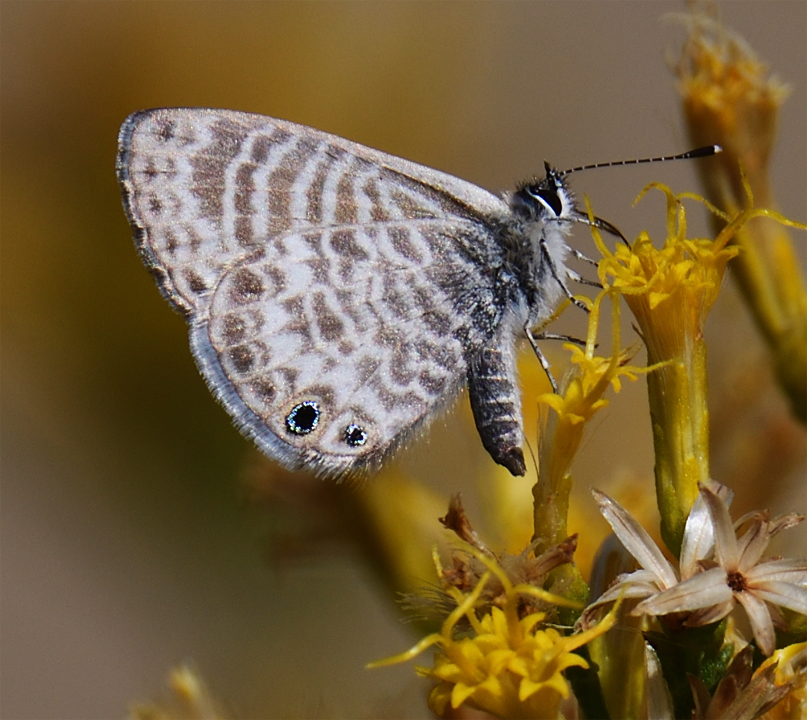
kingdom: Animalia
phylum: Arthropoda
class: Insecta
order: Lepidoptera
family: Lycaenidae
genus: Leptotes
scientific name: Leptotes marina
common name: Marine blue
